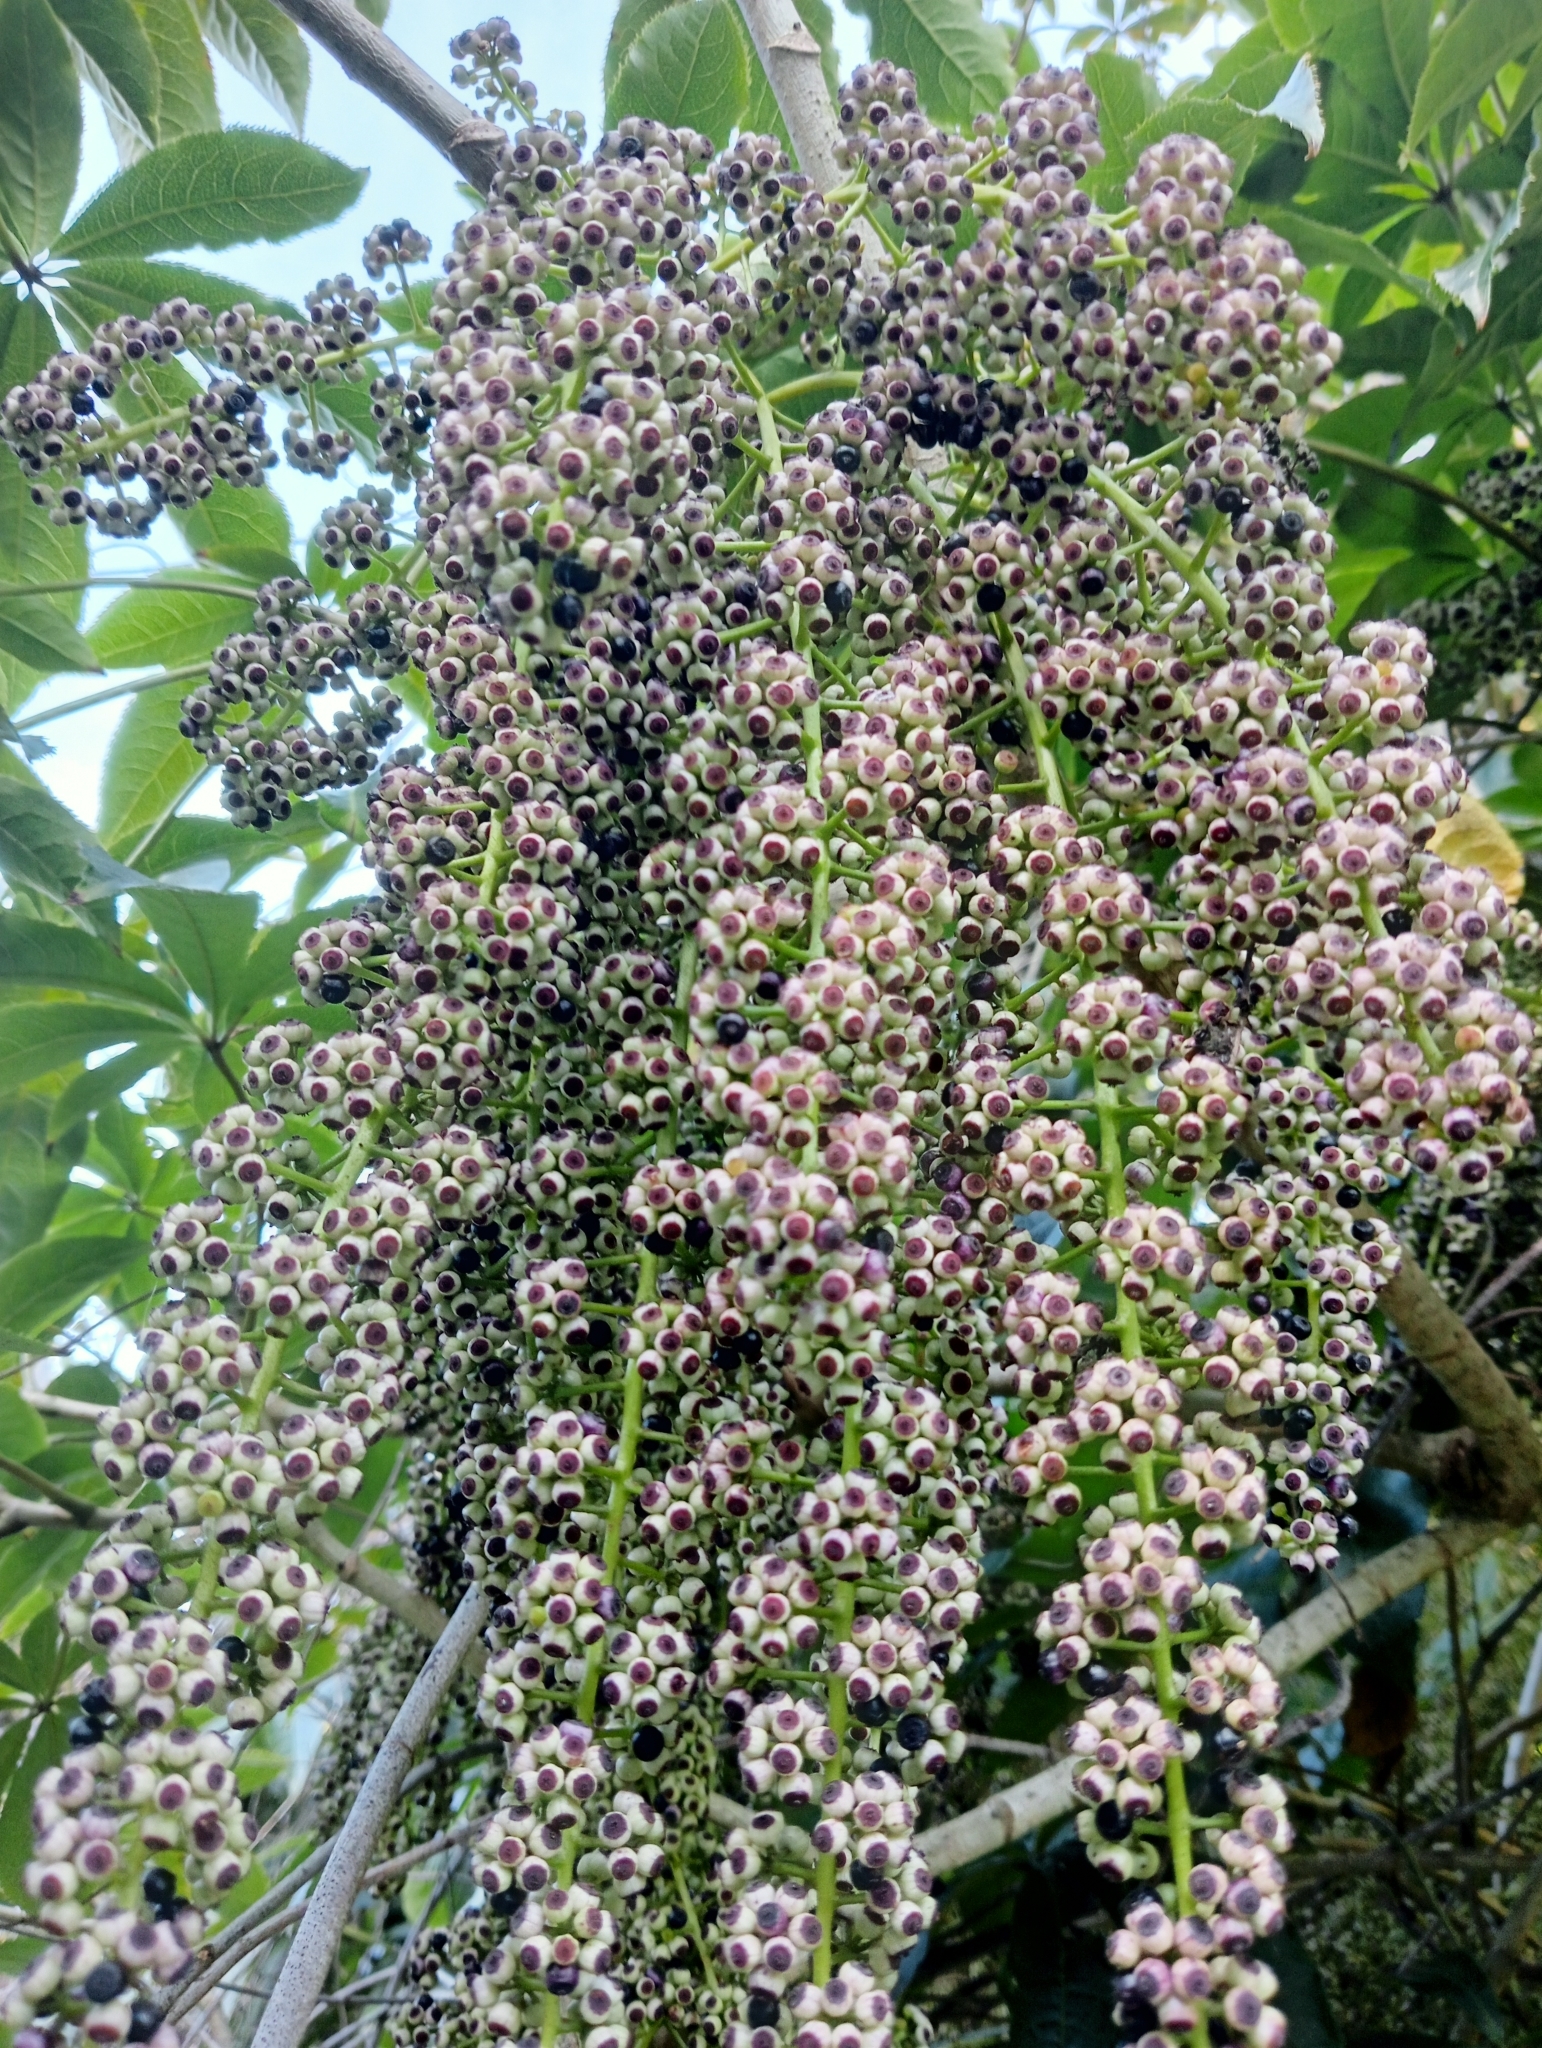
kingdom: Plantae
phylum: Tracheophyta
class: Magnoliopsida
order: Apiales
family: Araliaceae
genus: Schefflera
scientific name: Schefflera digitata
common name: Pate
